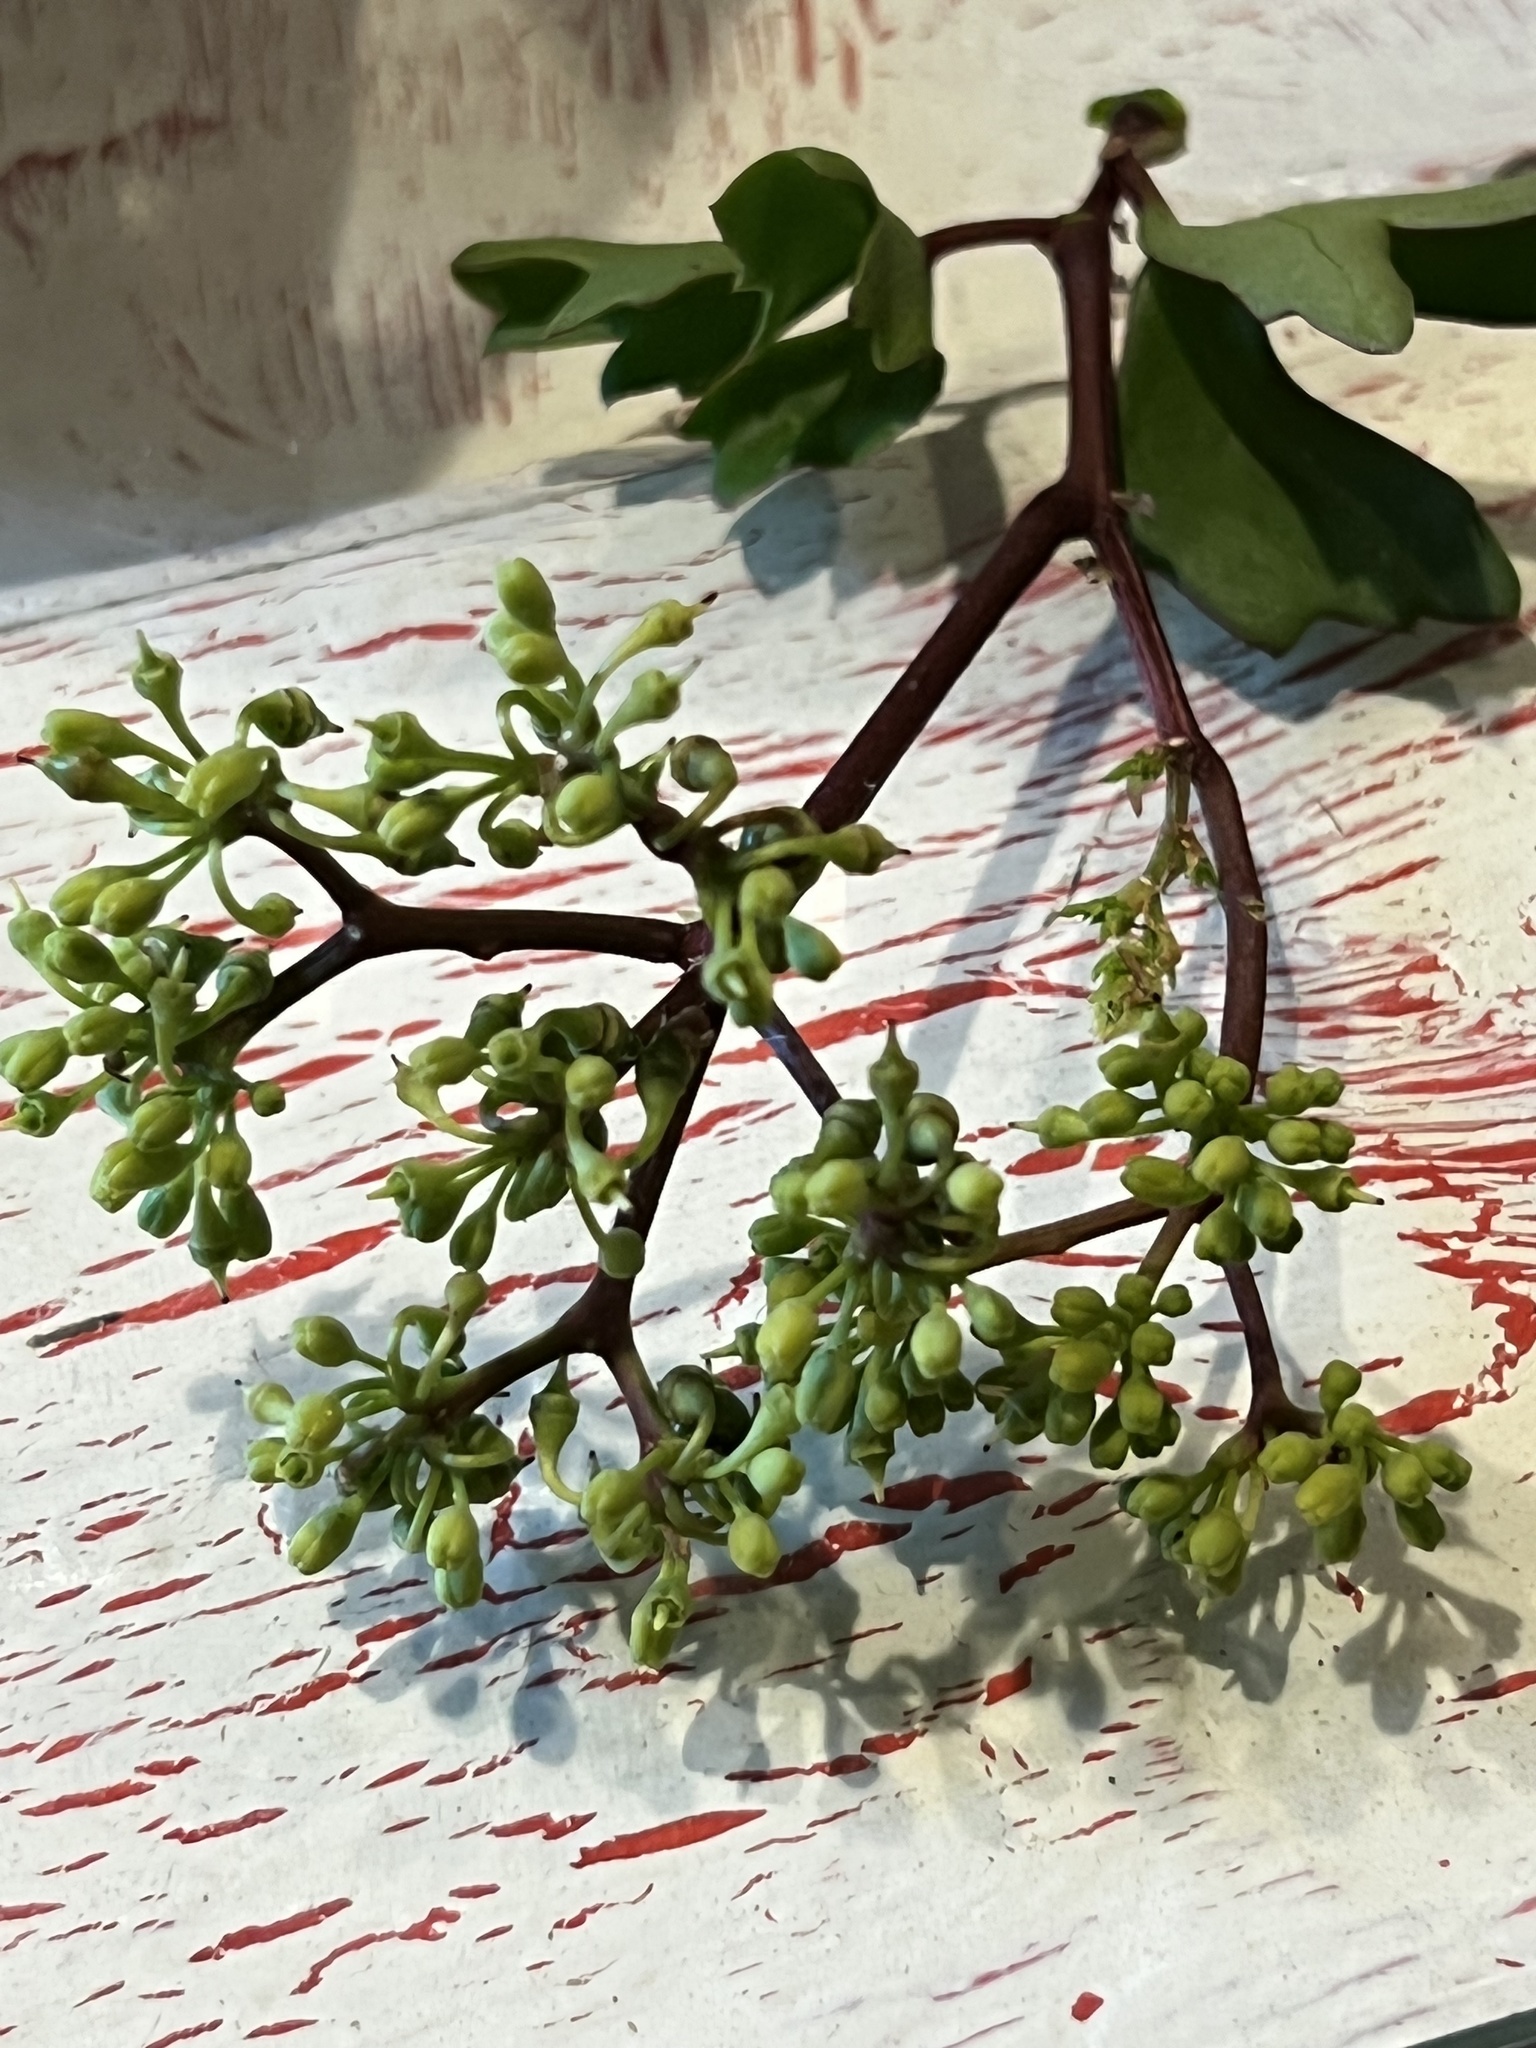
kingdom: Plantae
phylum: Tracheophyta
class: Magnoliopsida
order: Vitales
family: Vitaceae
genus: Cissus
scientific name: Cissus trifoliata
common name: Vine-sorrel
